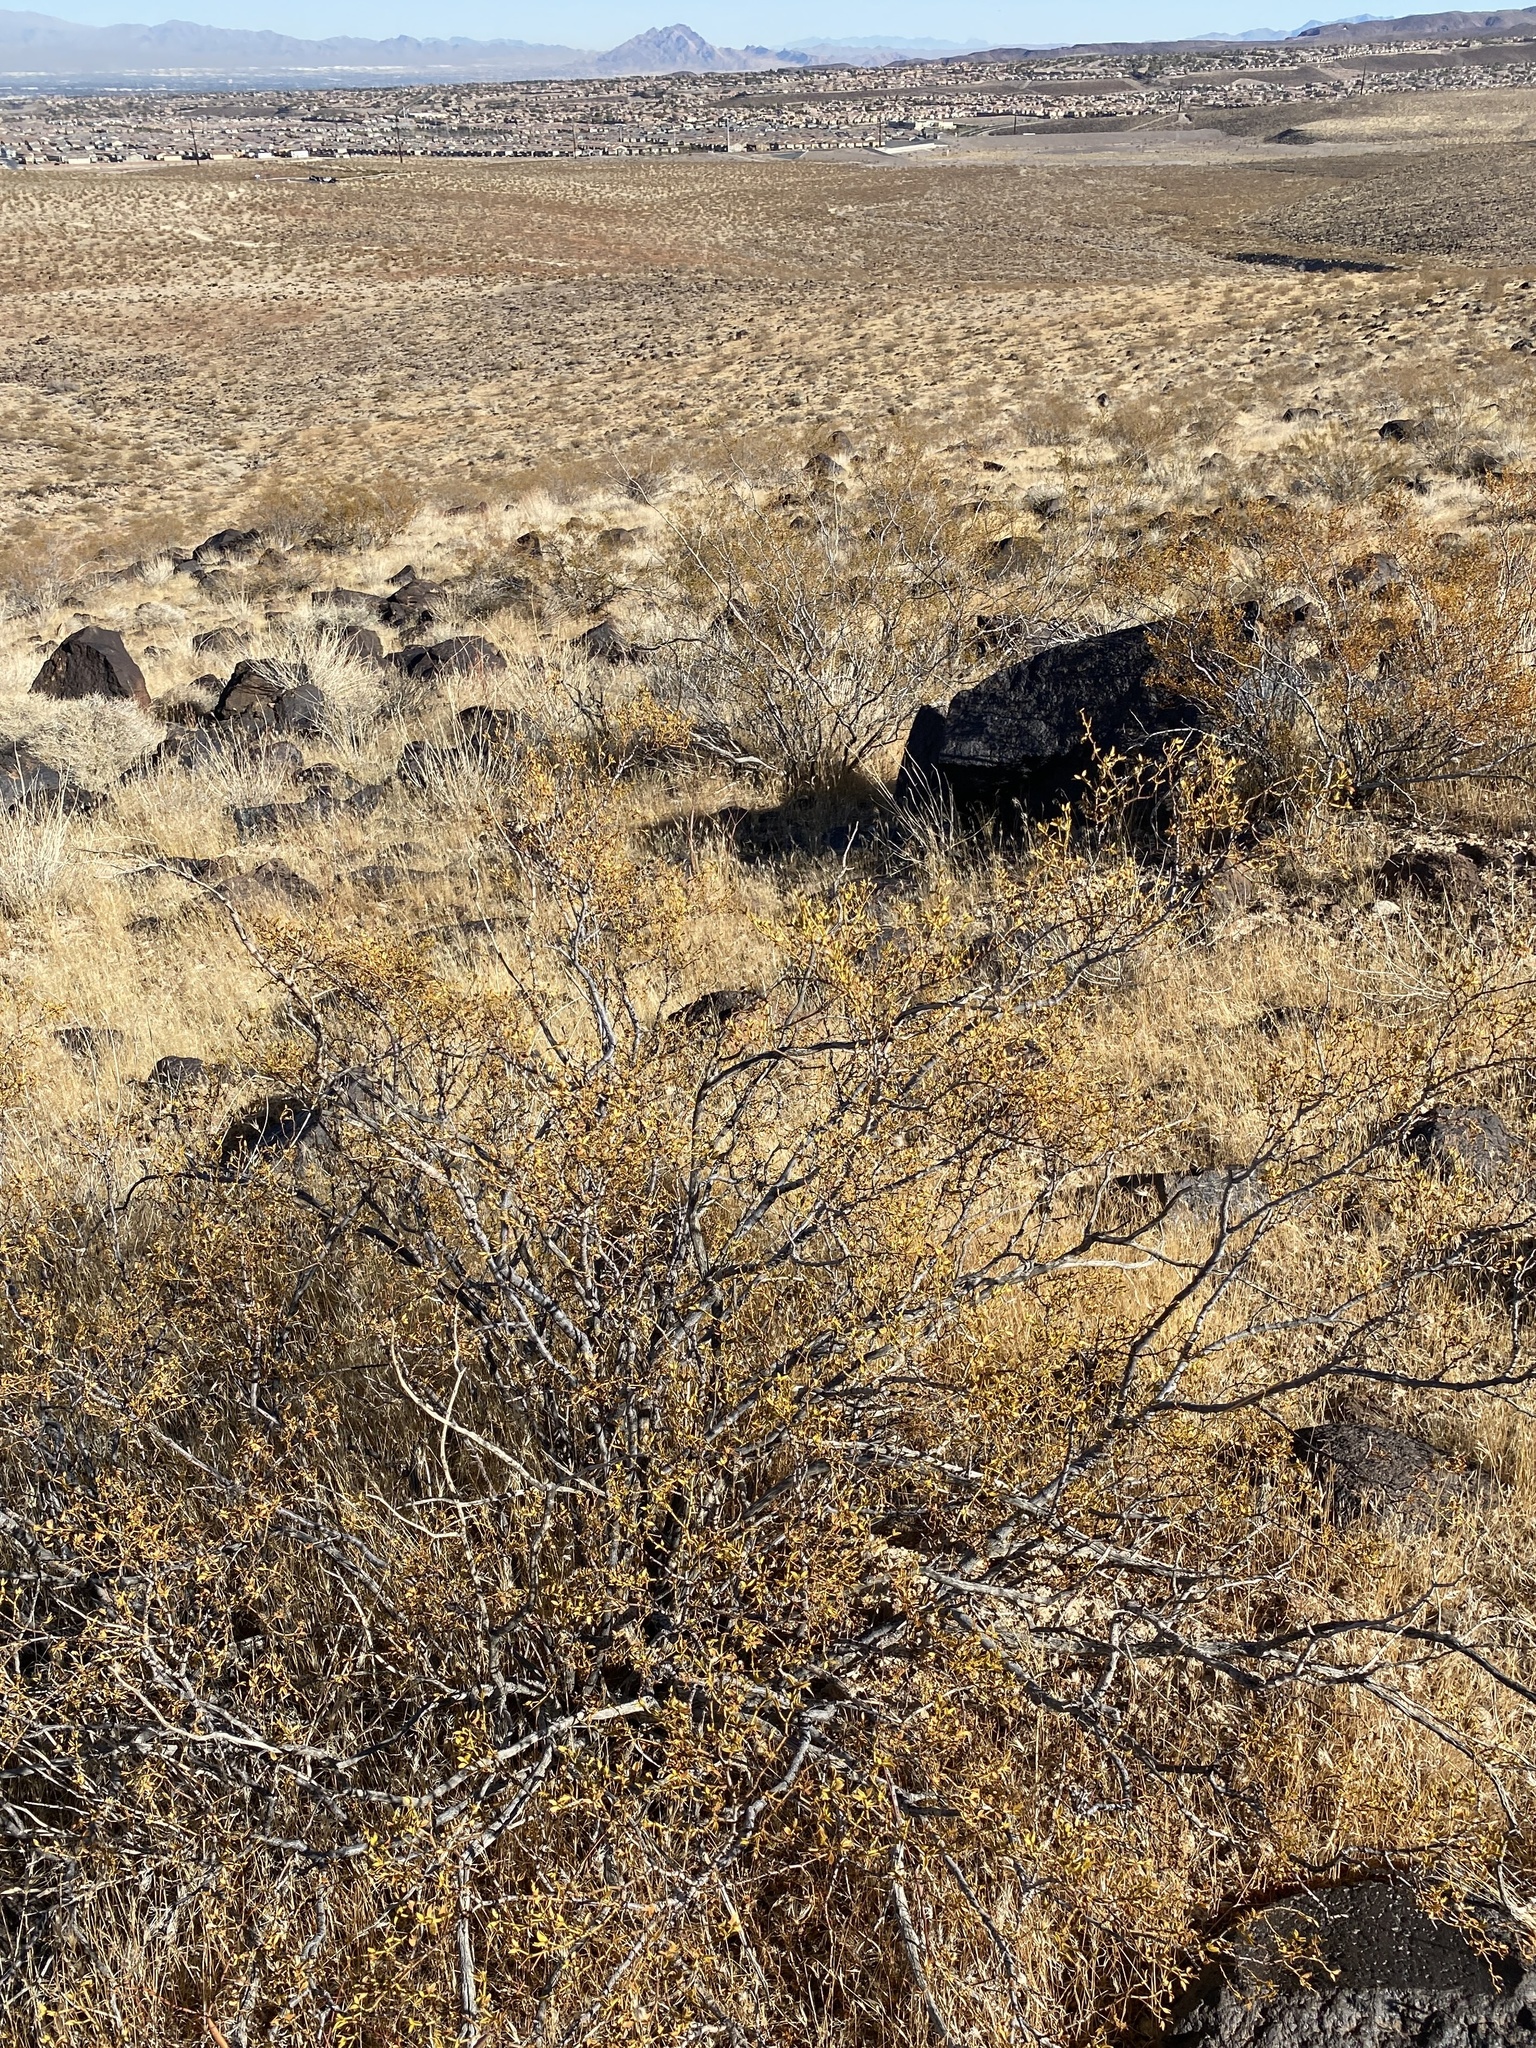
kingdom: Plantae
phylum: Tracheophyta
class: Magnoliopsida
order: Zygophyllales
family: Zygophyllaceae
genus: Larrea
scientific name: Larrea tridentata
